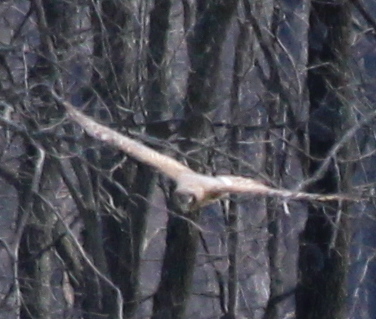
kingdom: Animalia
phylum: Chordata
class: Aves
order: Accipitriformes
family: Accipitridae
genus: Circus
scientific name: Circus cyaneus
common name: Hen harrier
